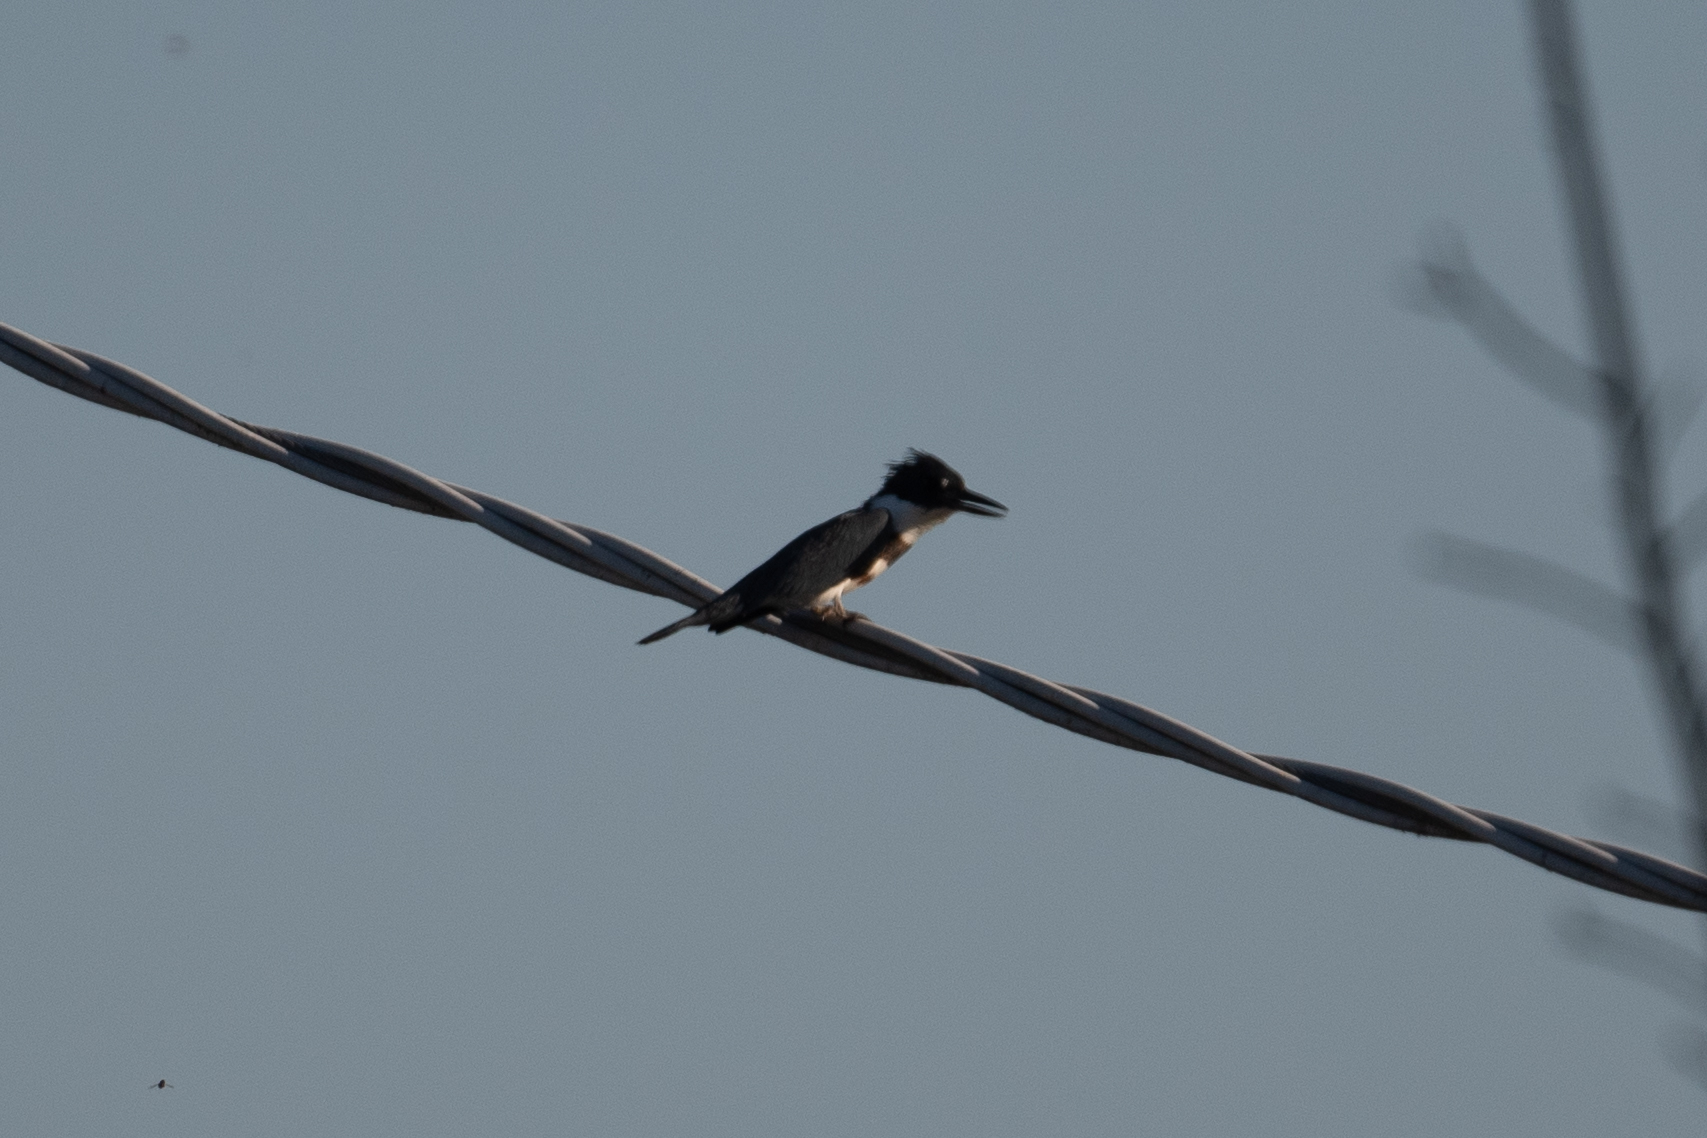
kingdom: Animalia
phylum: Chordata
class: Aves
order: Coraciiformes
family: Alcedinidae
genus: Megaceryle
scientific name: Megaceryle alcyon
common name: Belted kingfisher
